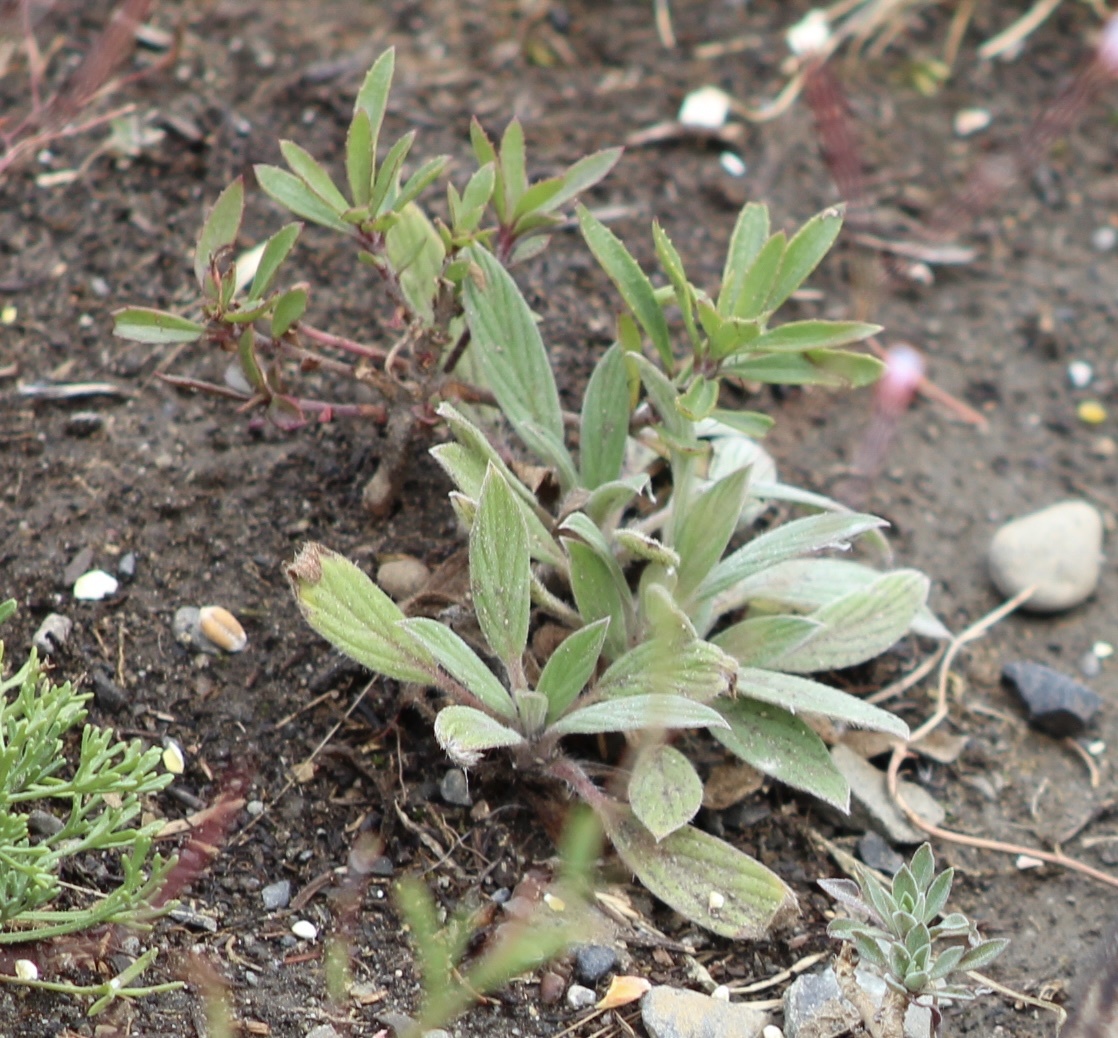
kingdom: Plantae
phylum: Tracheophyta
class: Magnoliopsida
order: Boraginales
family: Hydrophyllaceae
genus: Phacelia
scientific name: Phacelia hastata
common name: Silver-leaved phacelia
